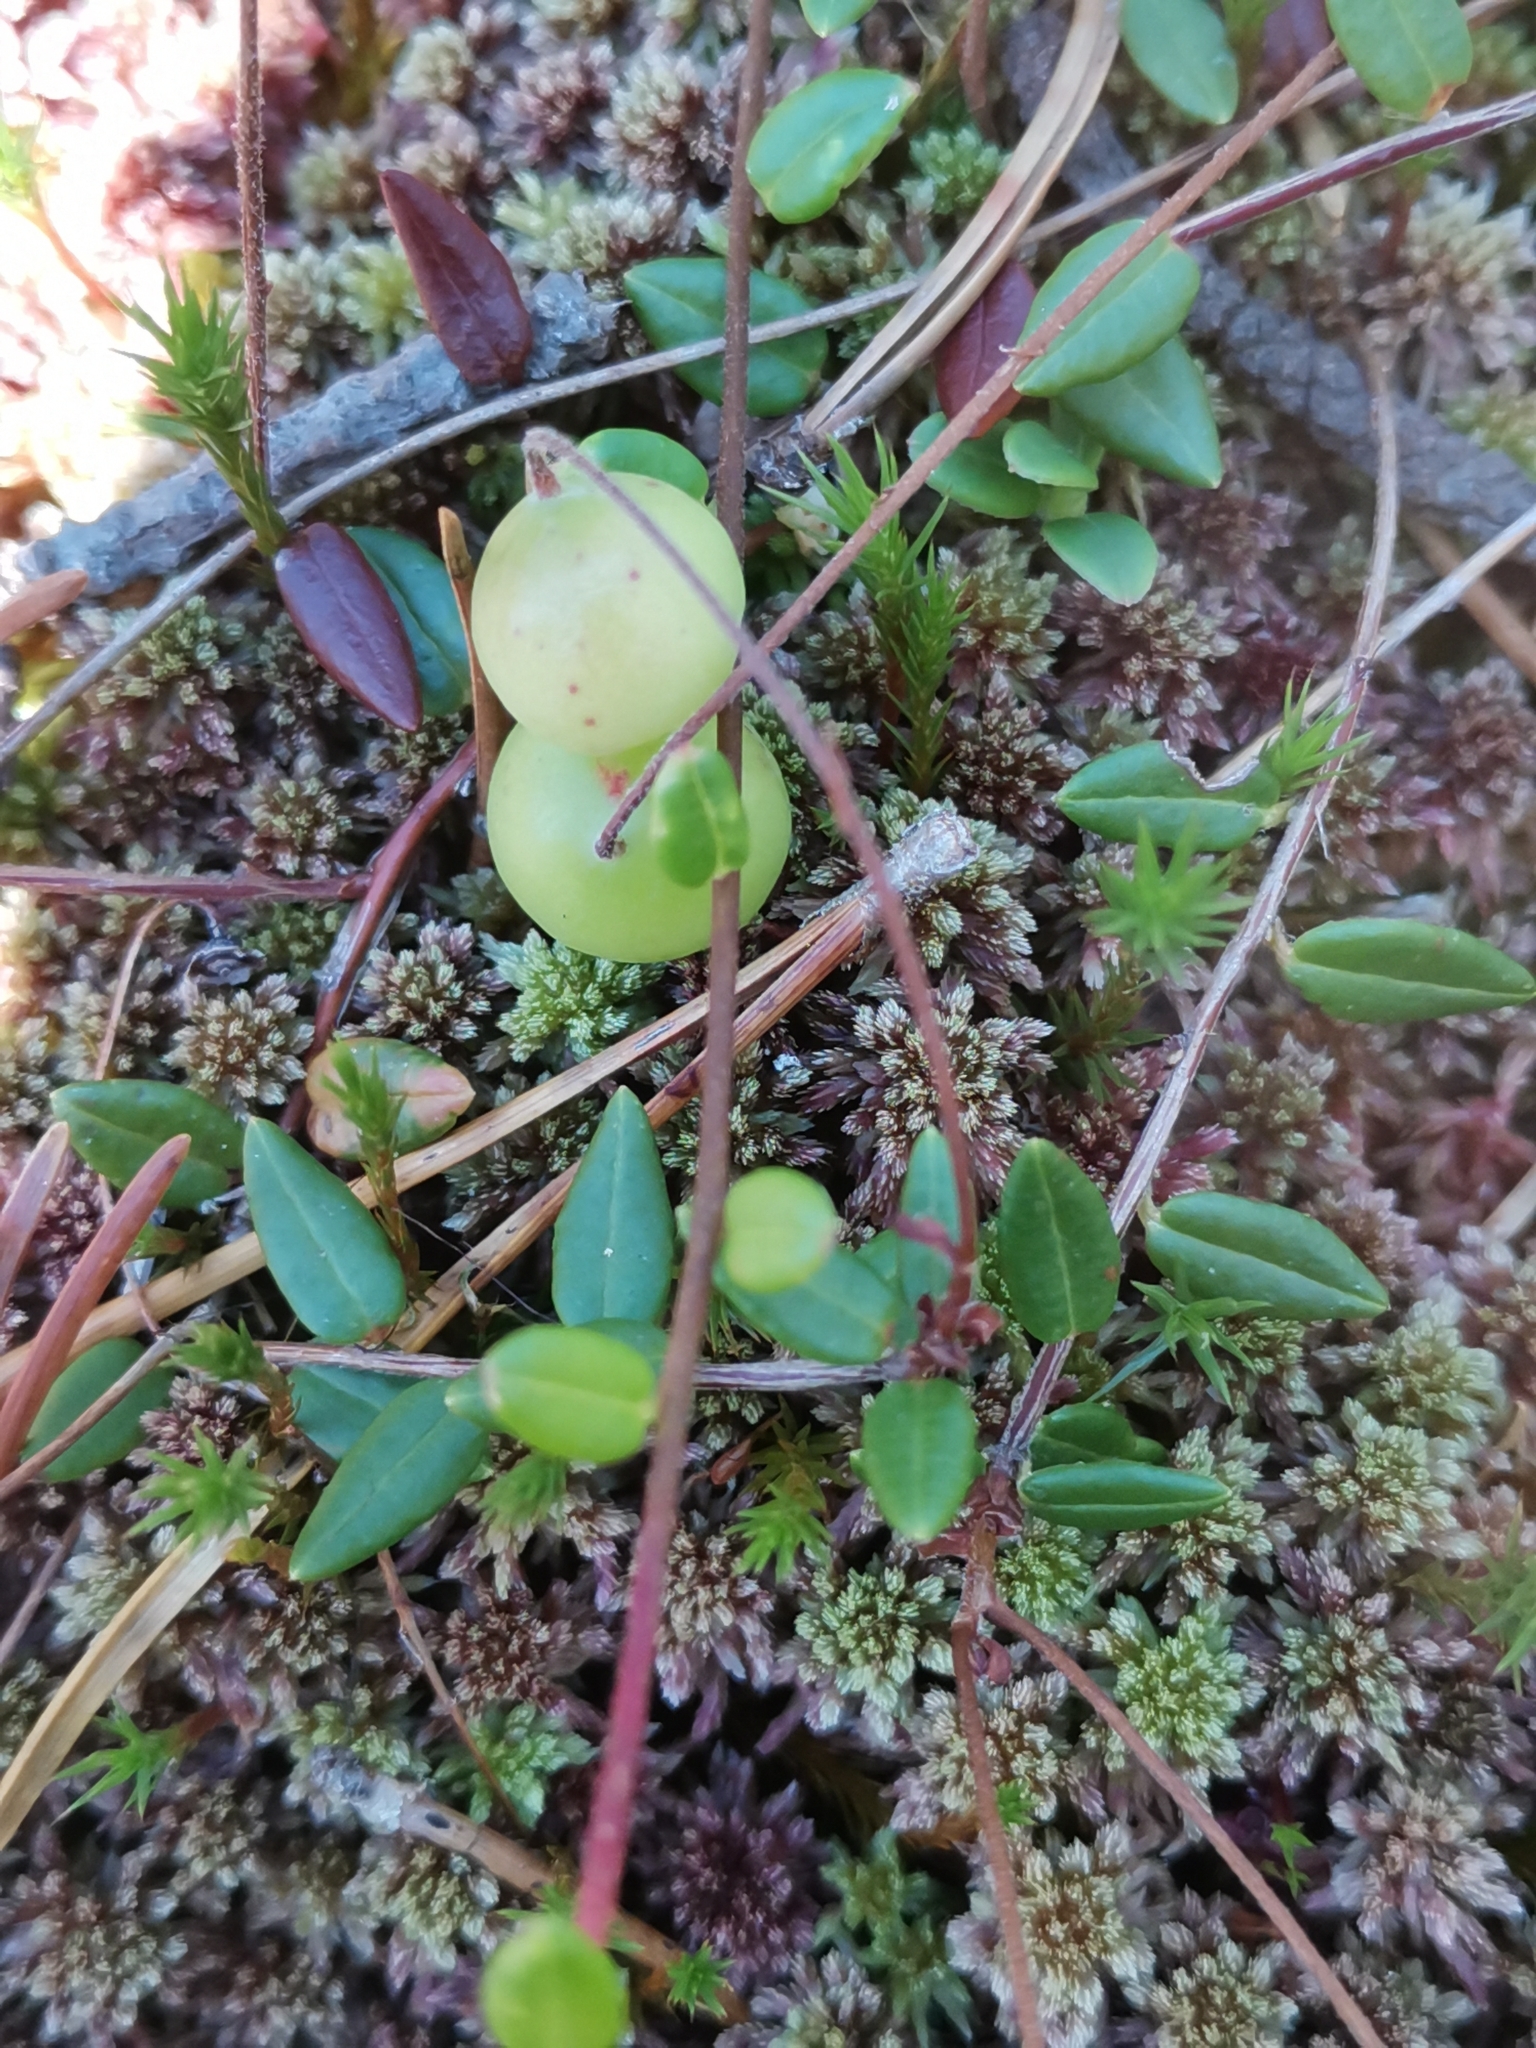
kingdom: Plantae
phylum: Tracheophyta
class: Magnoliopsida
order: Ericales
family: Ericaceae
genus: Vaccinium
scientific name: Vaccinium oxycoccos
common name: Cranberry
